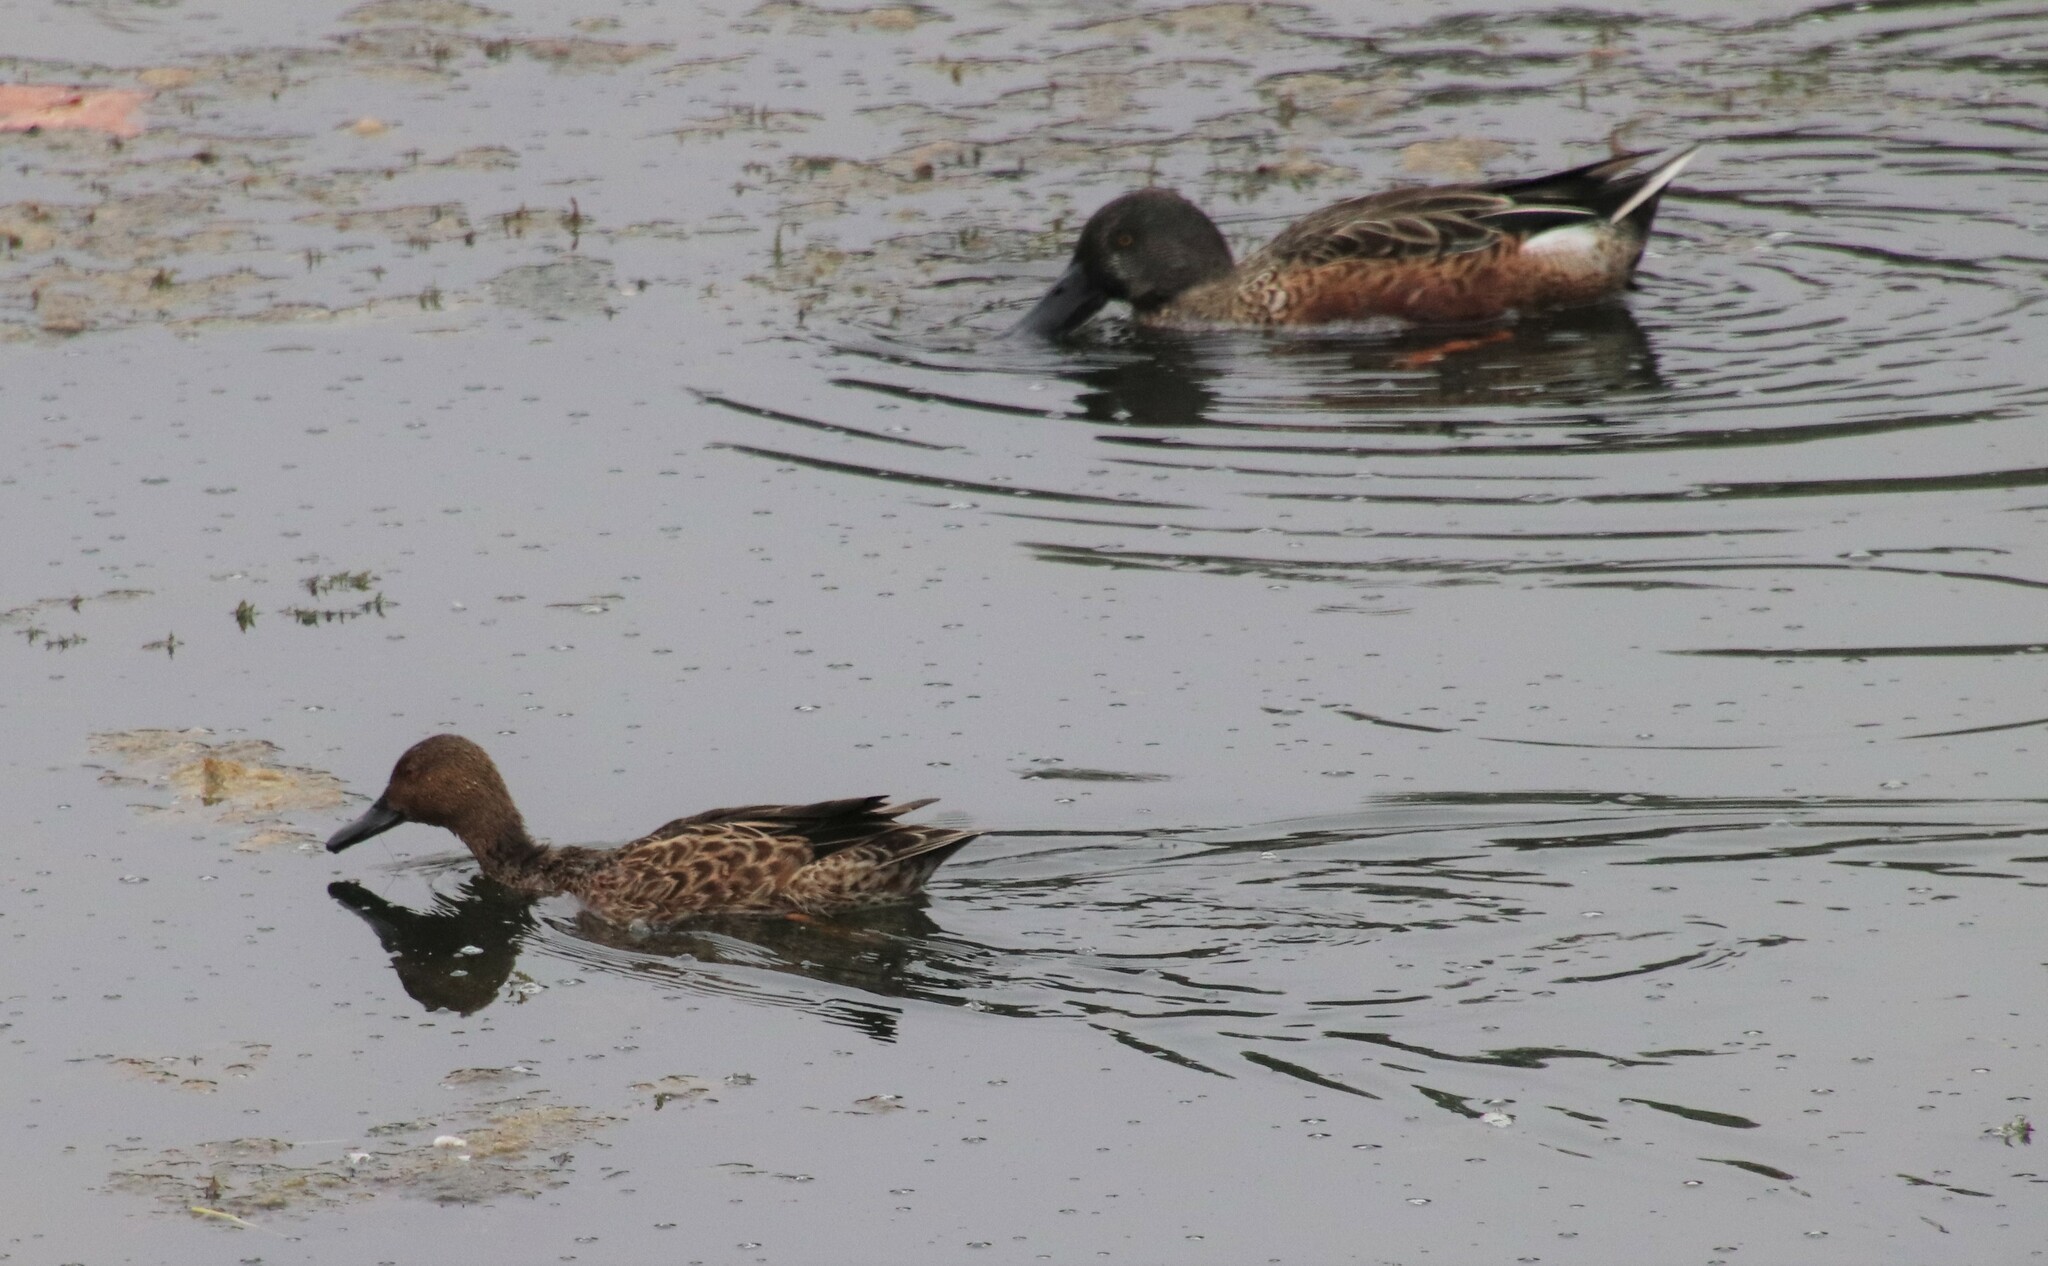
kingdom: Animalia
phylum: Chordata
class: Aves
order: Anseriformes
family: Anatidae
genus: Spatula
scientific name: Spatula cyanoptera
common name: Cinnamon teal
